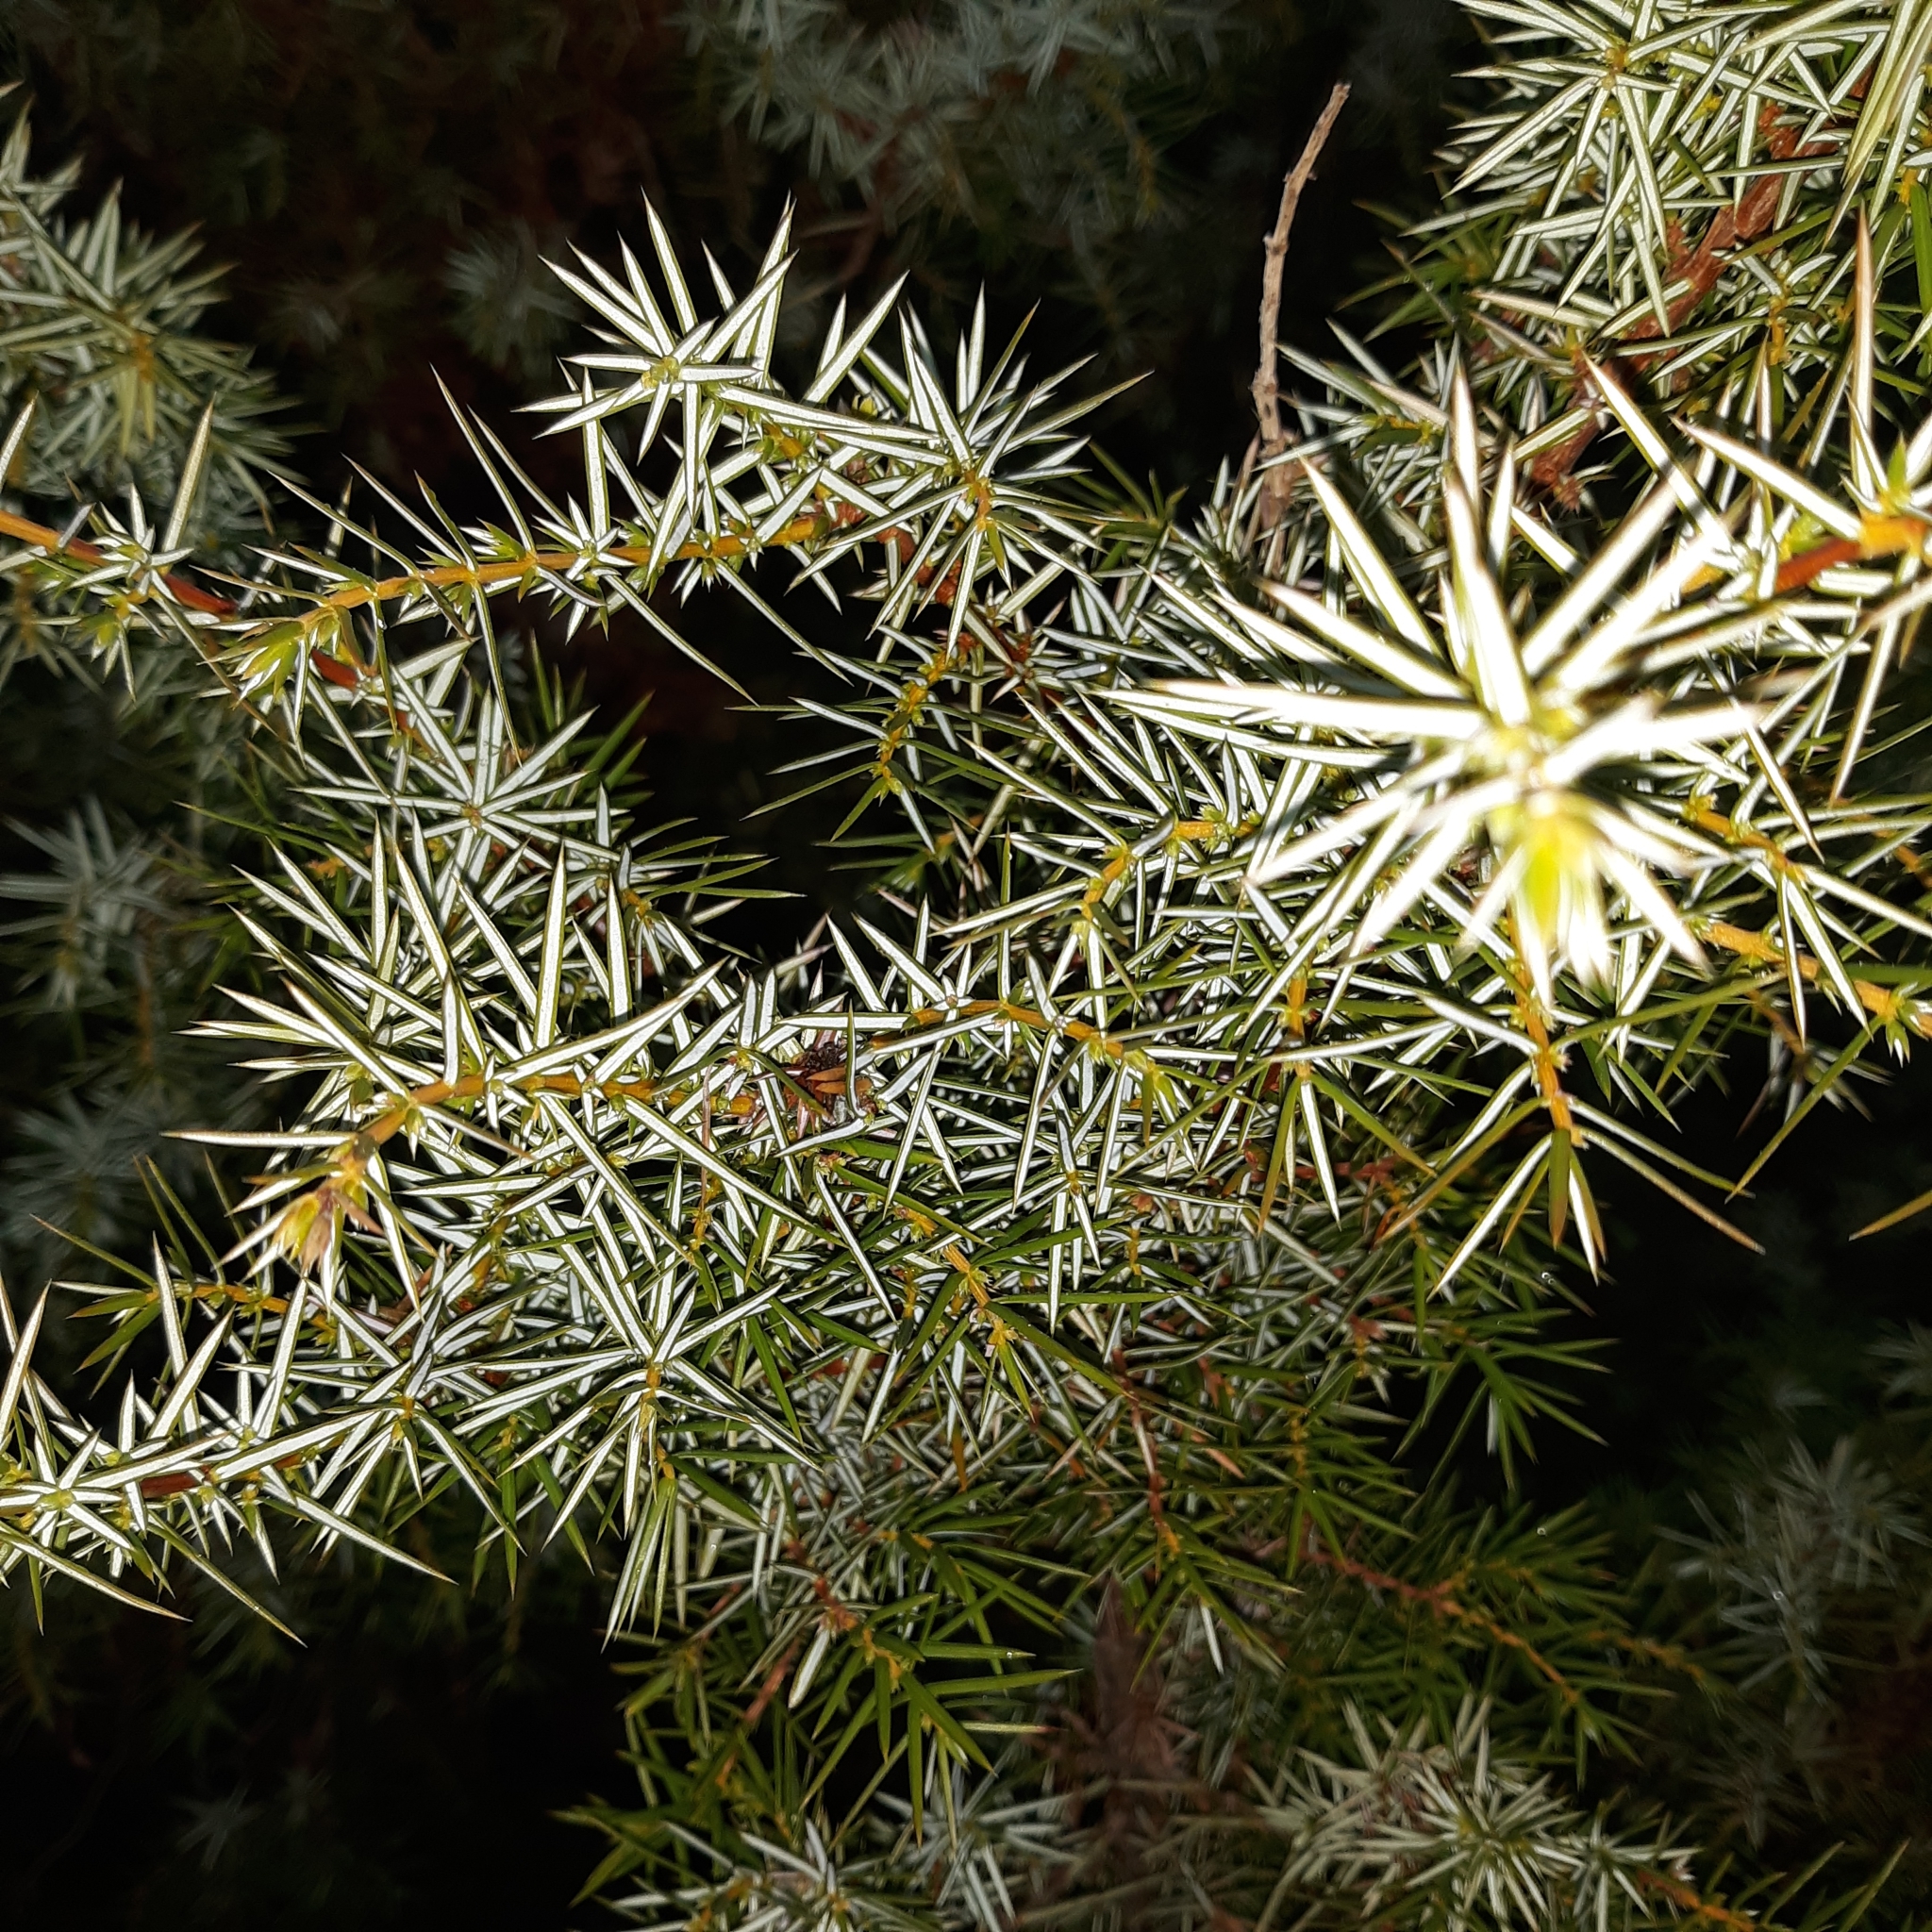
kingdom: Plantae
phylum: Tracheophyta
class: Pinopsida
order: Pinales
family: Cupressaceae
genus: Juniperus
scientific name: Juniperus communis
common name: Common juniper
